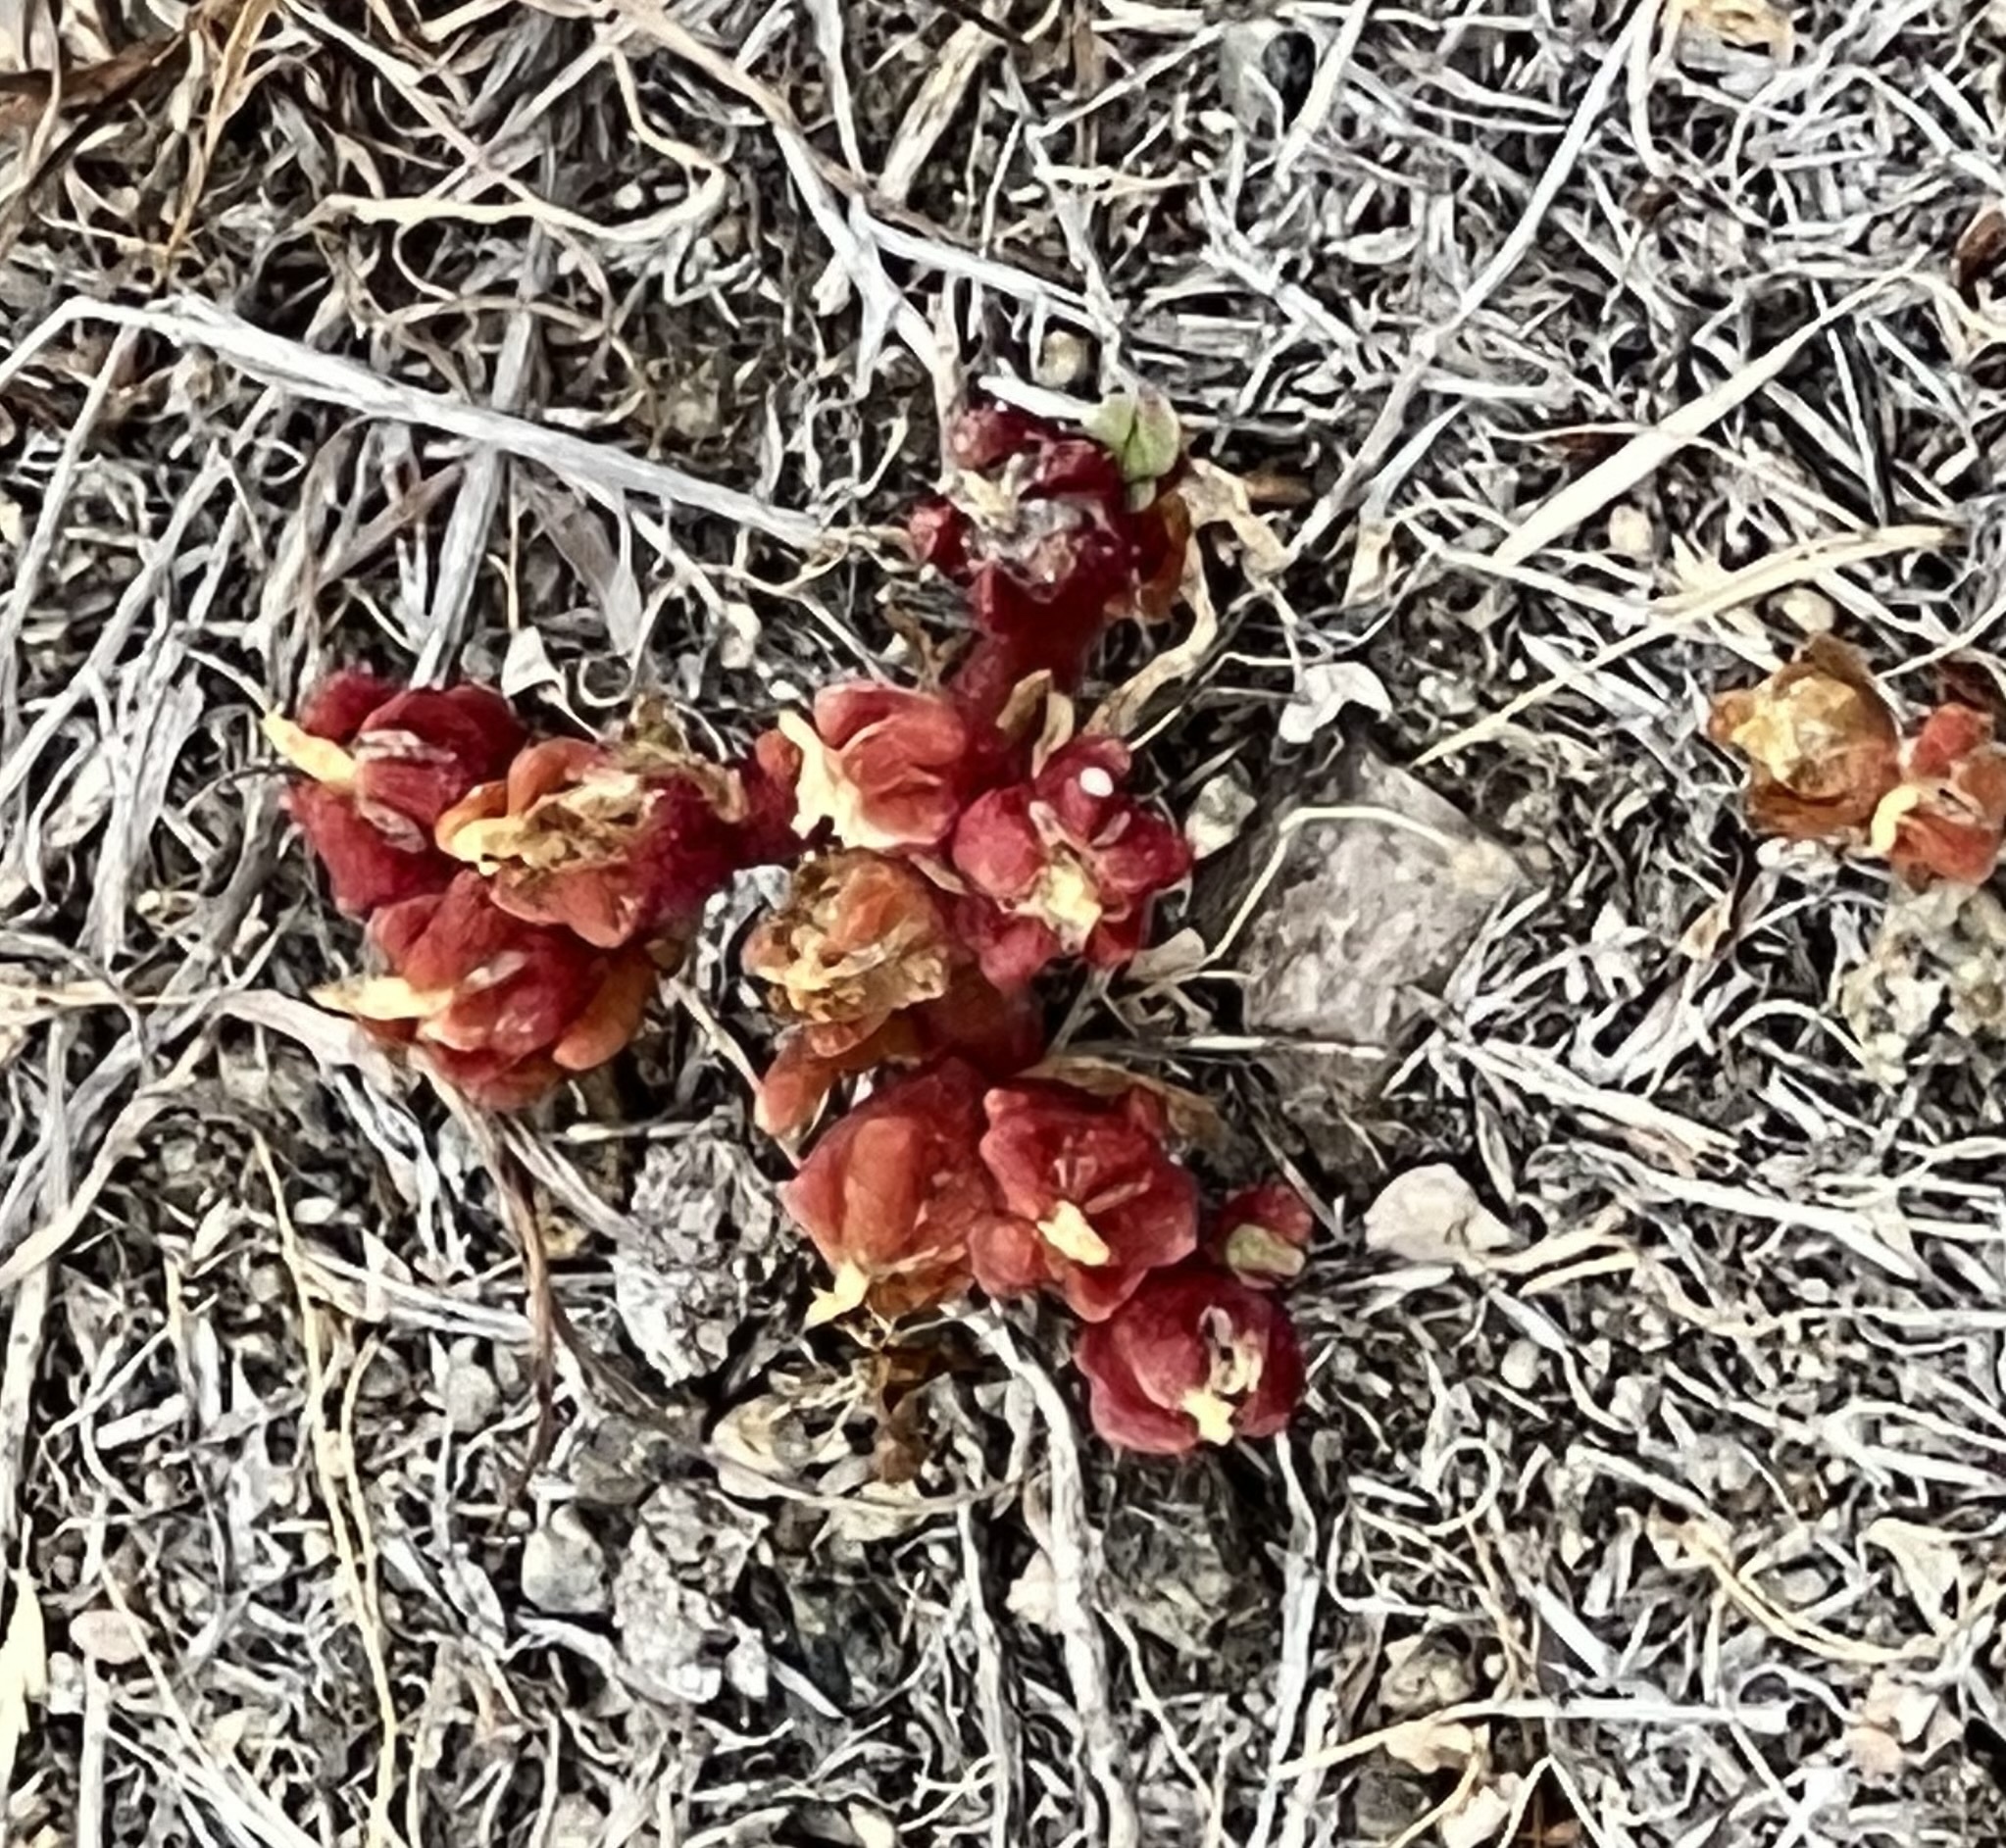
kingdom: Plantae
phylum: Tracheophyta
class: Magnoliopsida
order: Caryophyllales
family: Aizoaceae
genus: Mesembryanthemum
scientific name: Mesembryanthemum nodiflorum
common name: Slenderleaf iceplant
